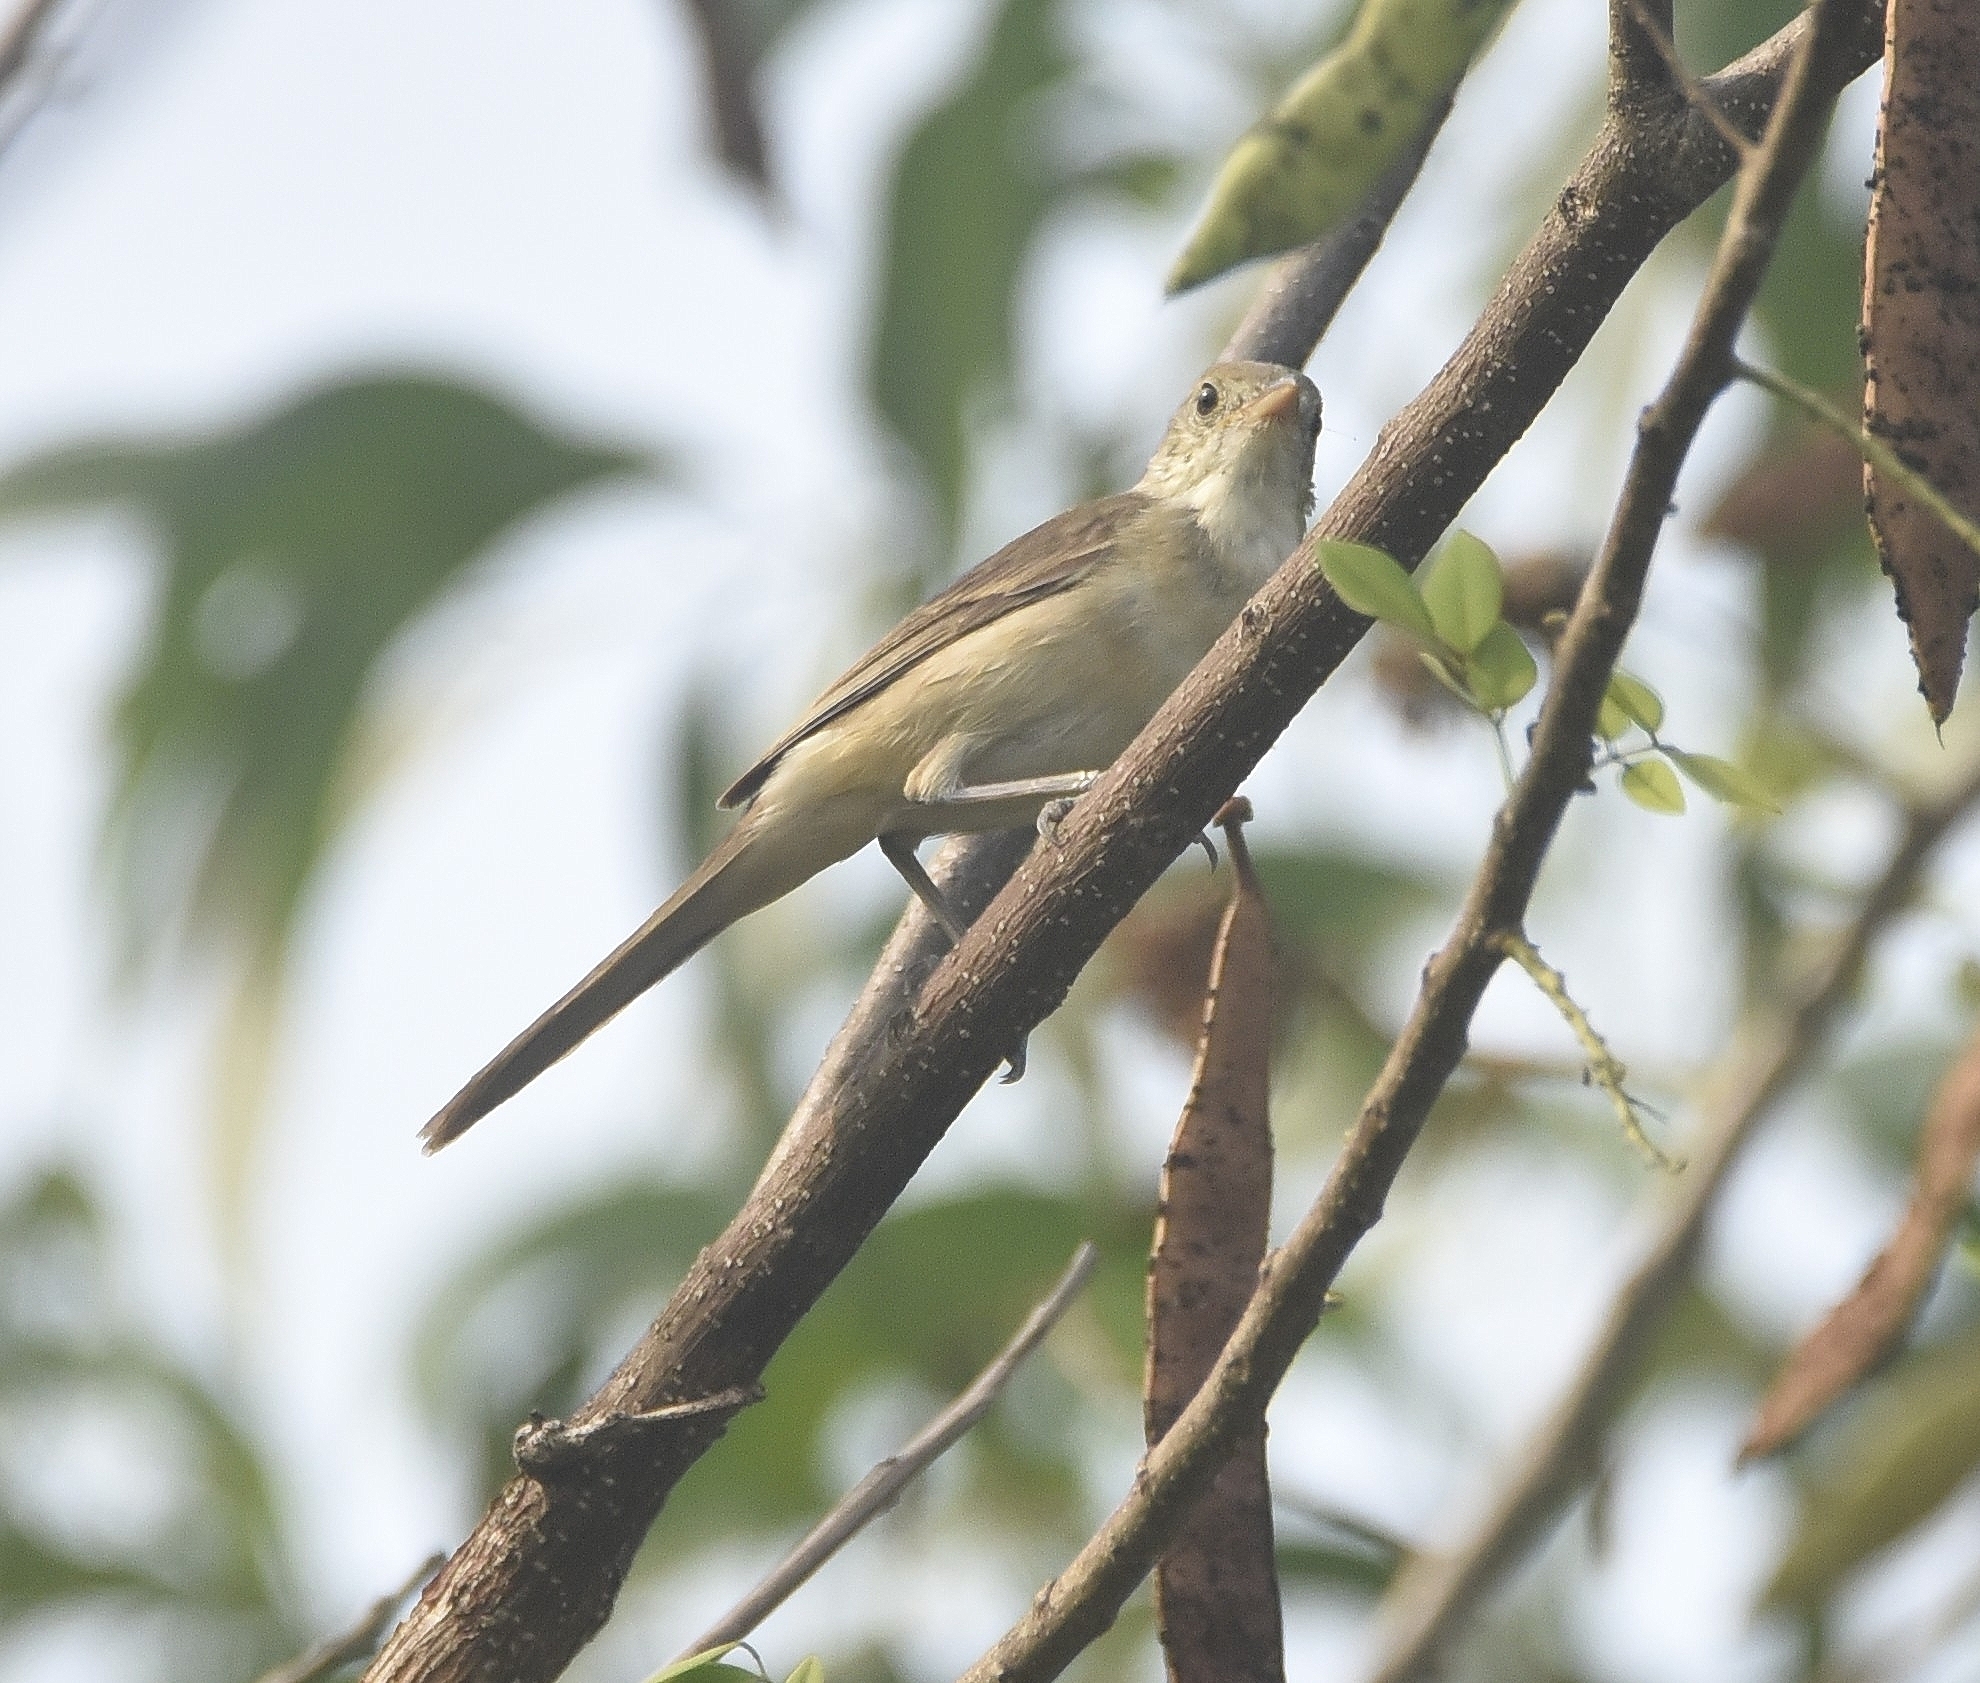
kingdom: Animalia
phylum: Chordata
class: Aves
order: Passeriformes
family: Acrocephalidae
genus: Iduna
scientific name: Iduna aedon
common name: Thick-billed warbler
